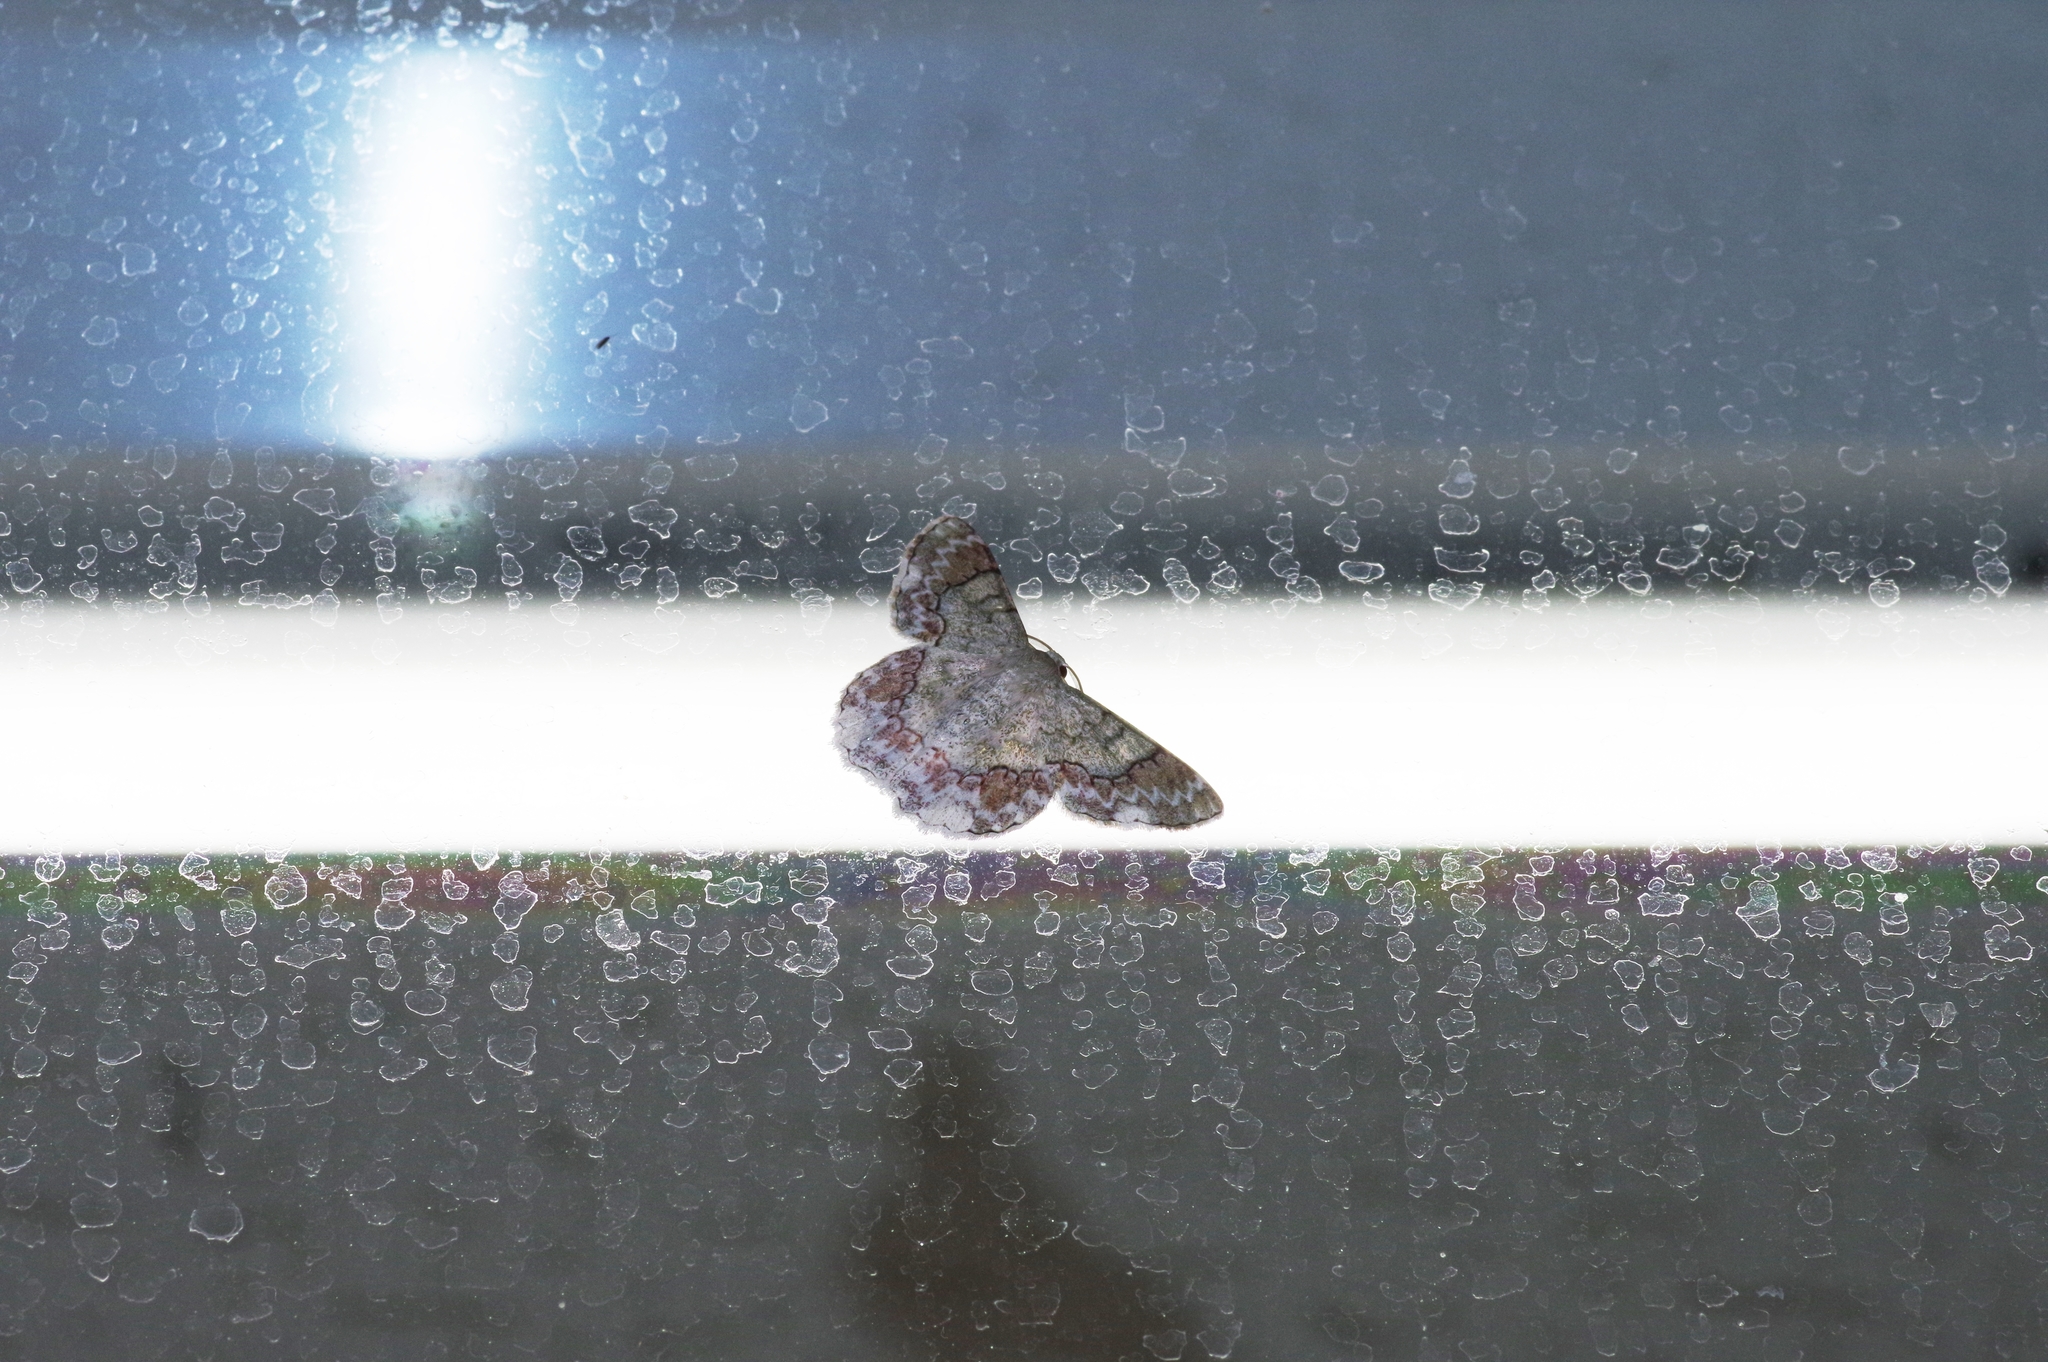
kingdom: Animalia
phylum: Arthropoda
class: Insecta
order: Lepidoptera
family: Geometridae
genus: Pingasa
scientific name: Pingasa ruginaria
